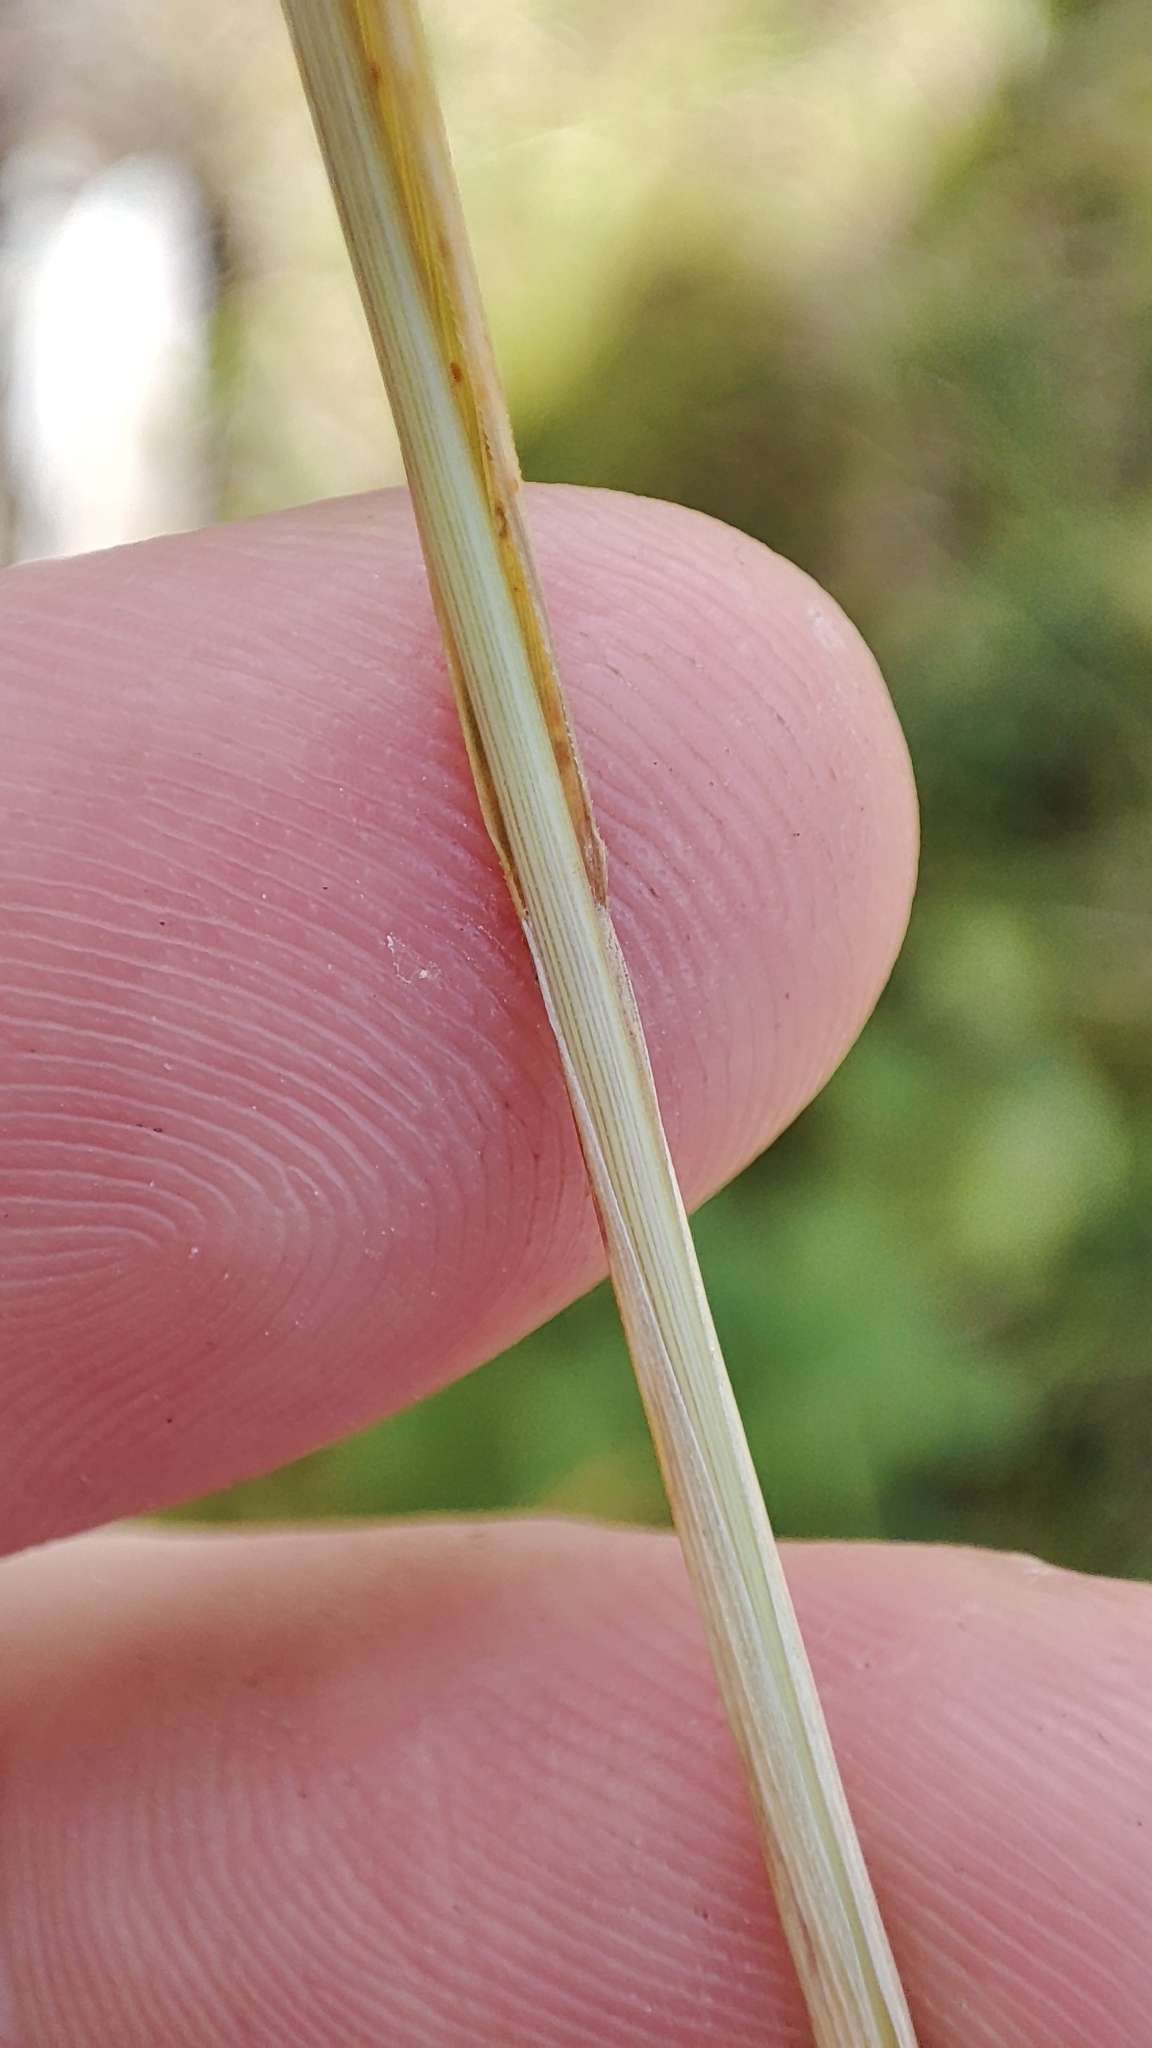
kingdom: Plantae
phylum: Tracheophyta
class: Liliopsida
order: Poales
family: Poaceae
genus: Calamagrostis
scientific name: Calamagrostis purpurea
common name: Scandinavian small-reed
